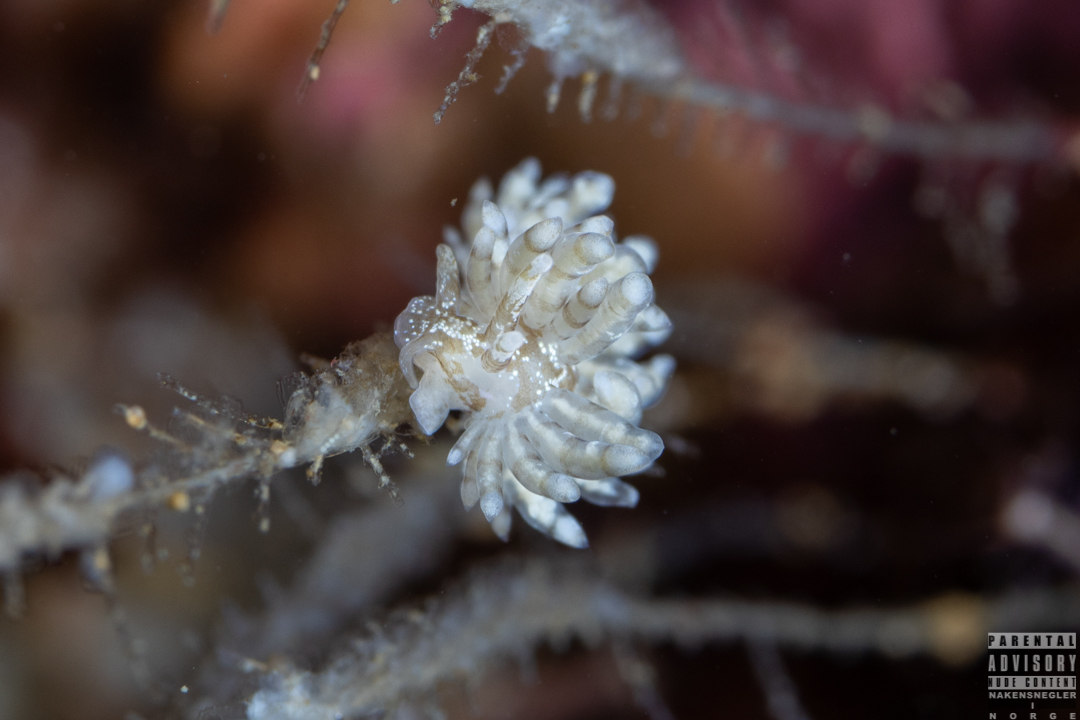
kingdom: Animalia
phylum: Mollusca
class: Gastropoda
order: Nudibranchia
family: Eubranchidae
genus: Eubranchus
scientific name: Eubranchus vittatus
